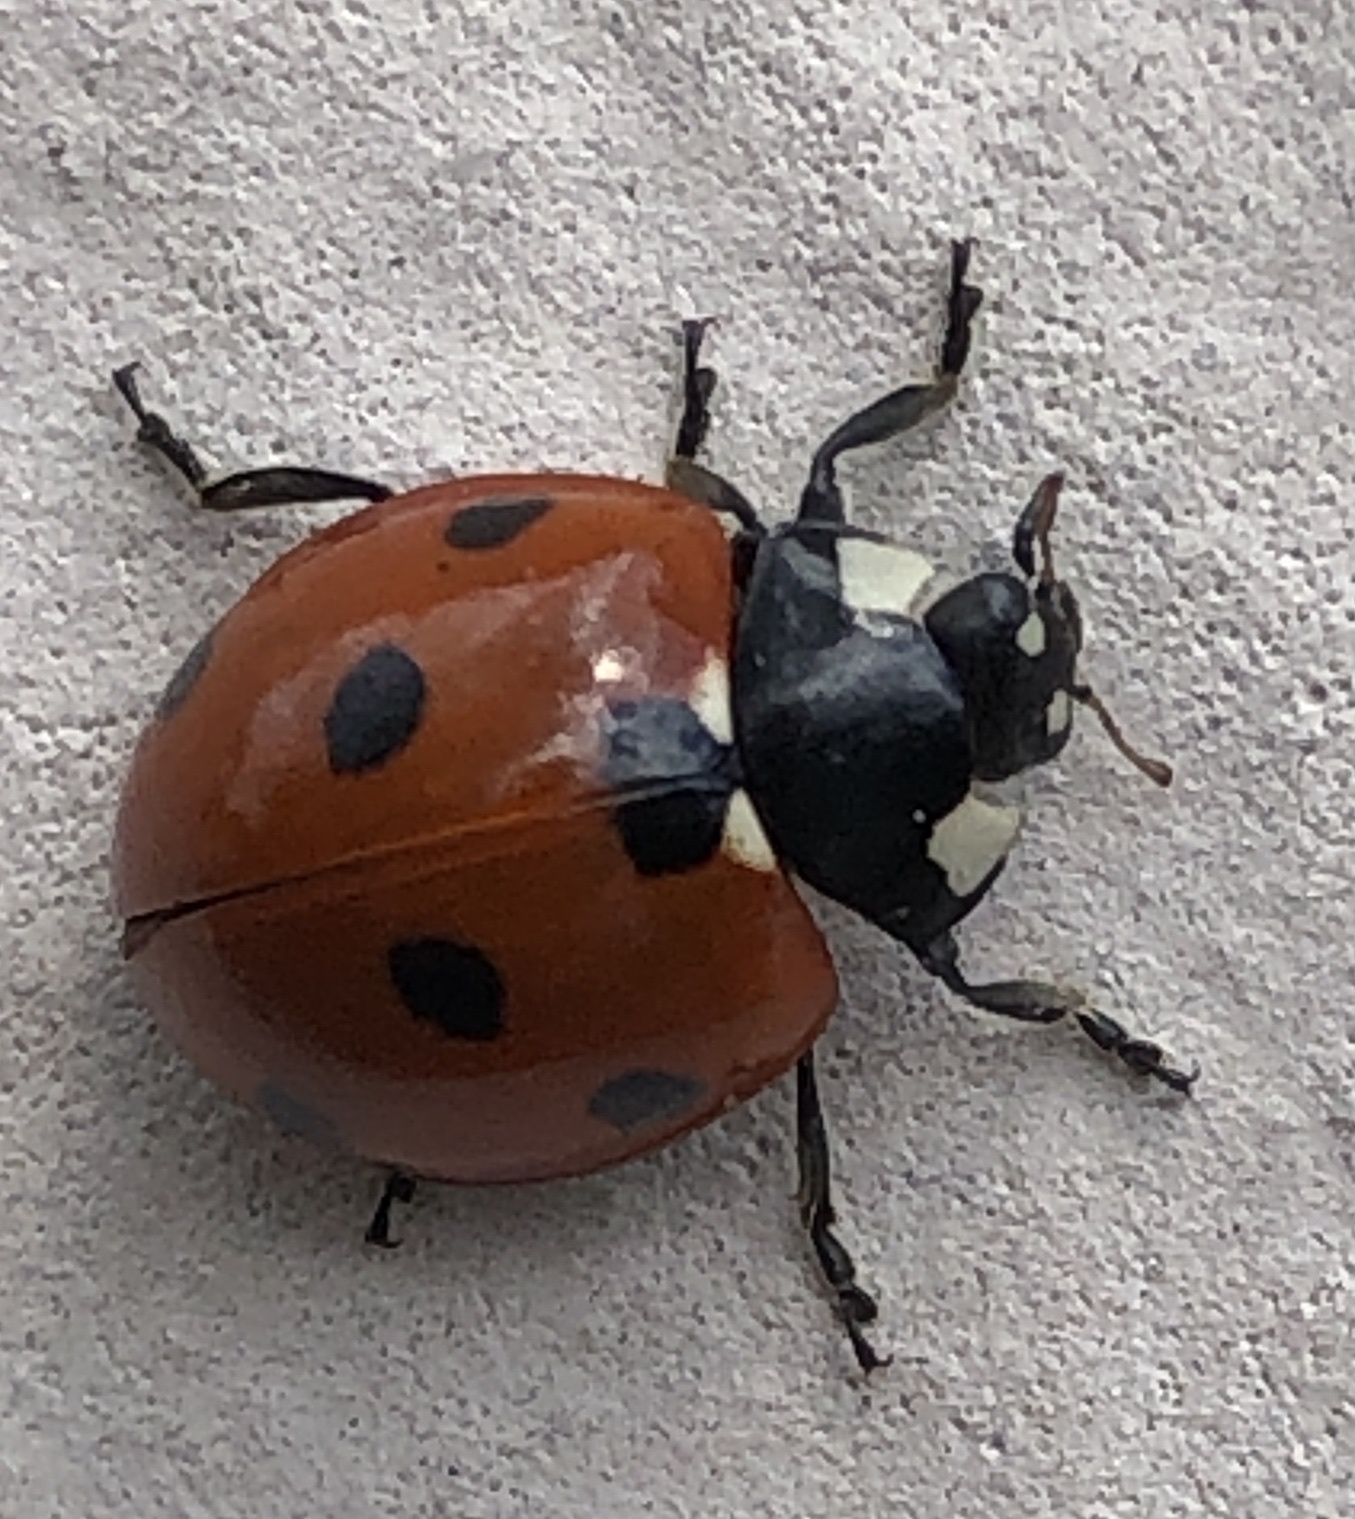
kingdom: Animalia
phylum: Arthropoda
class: Insecta
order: Coleoptera
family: Coccinellidae
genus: Coccinella
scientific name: Coccinella septempunctata
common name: Sevenspotted lady beetle
